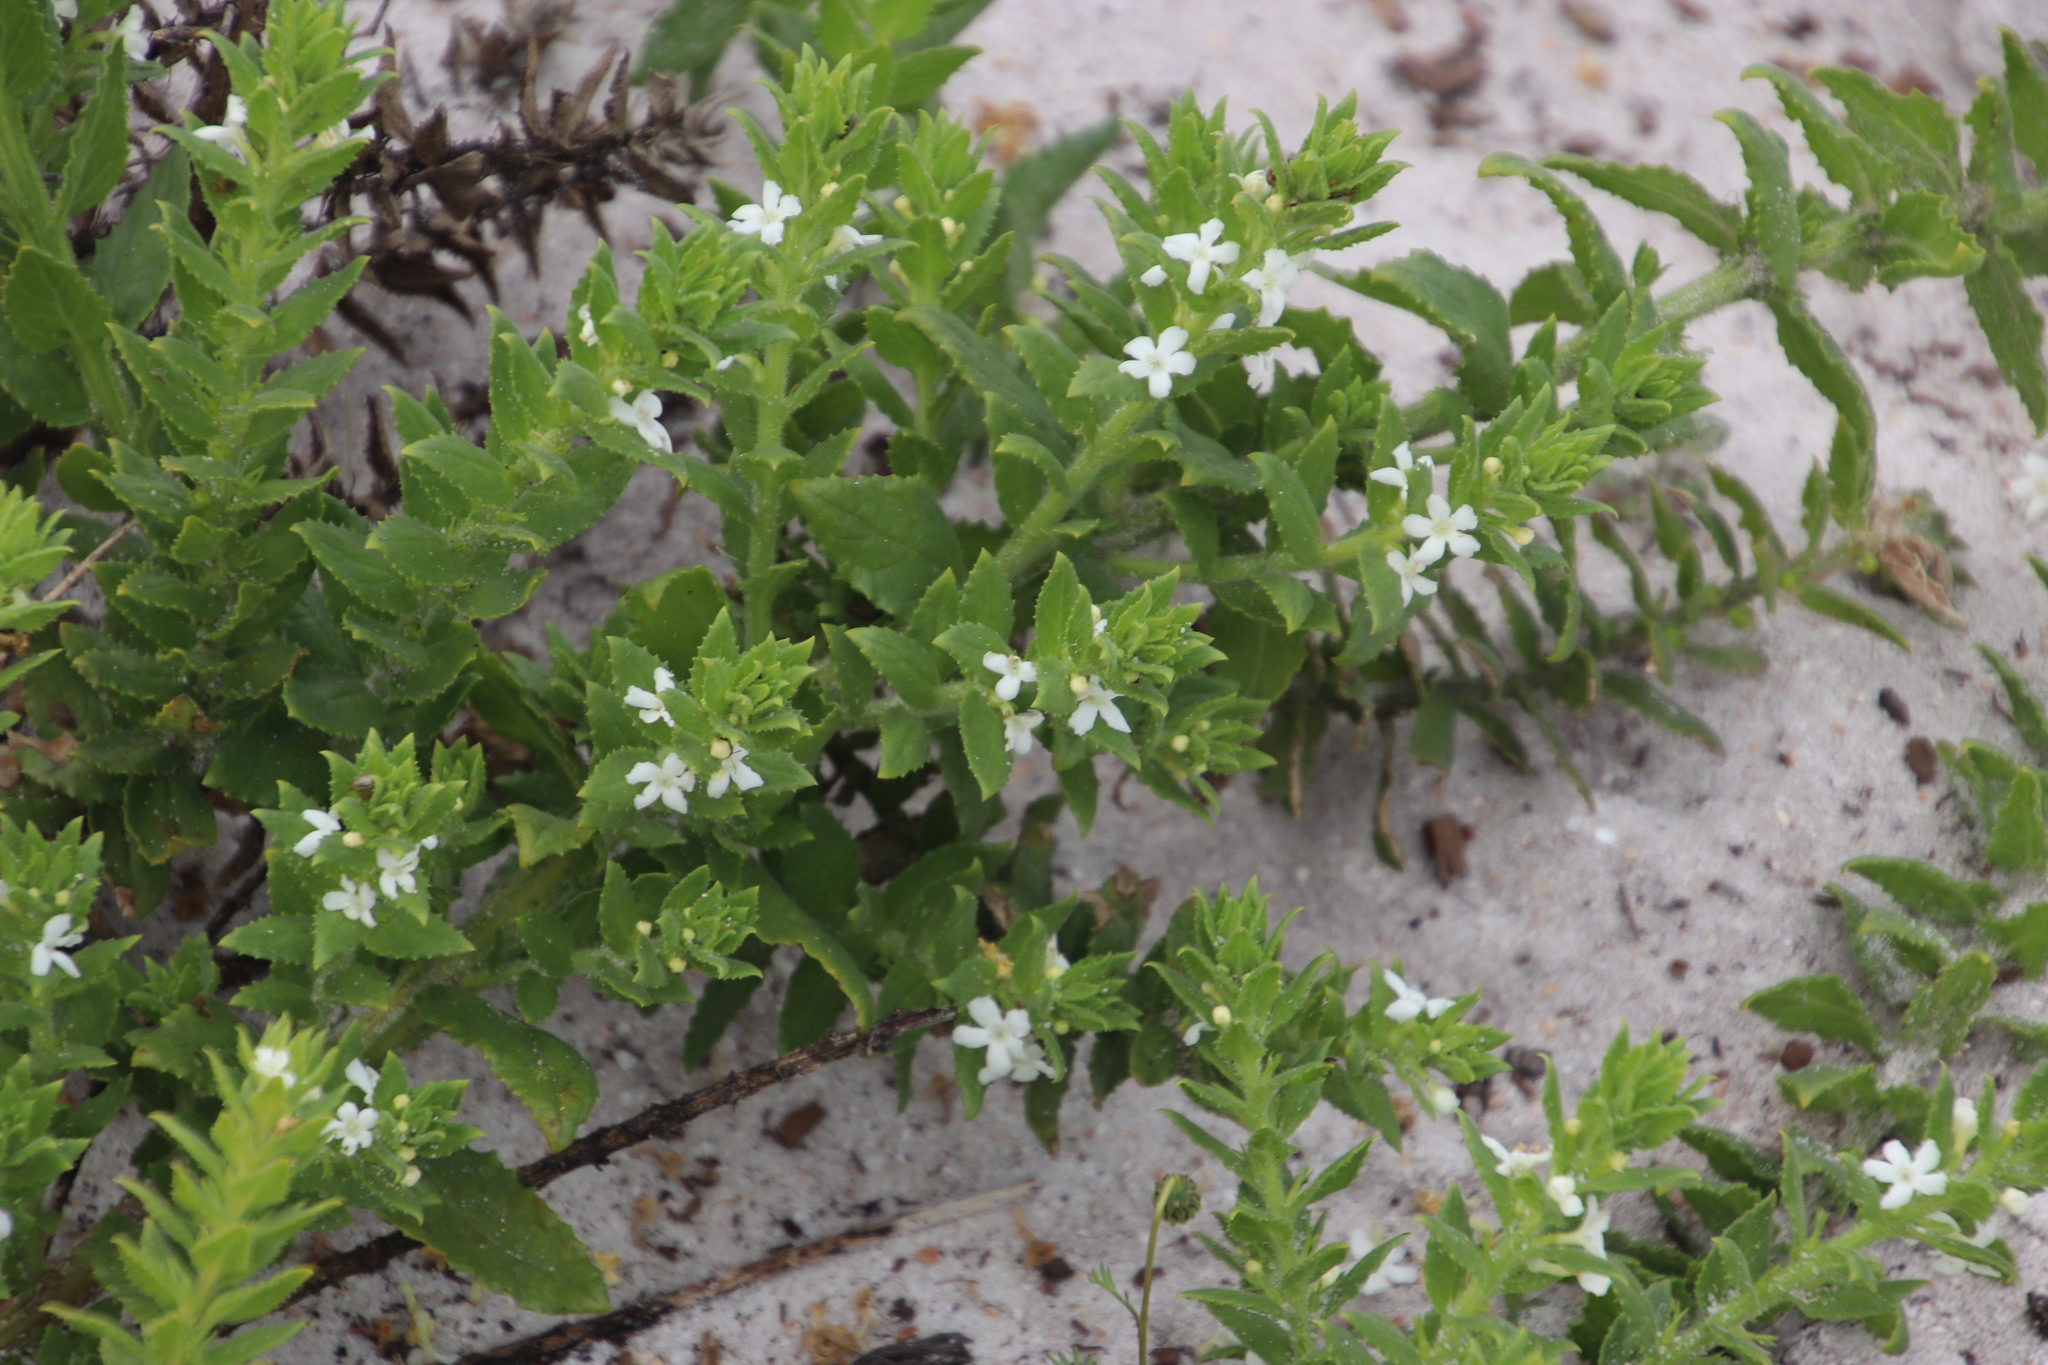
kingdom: Plantae
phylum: Tracheophyta
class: Magnoliopsida
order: Lamiales
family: Scrophulariaceae
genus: Oftia
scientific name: Oftia africana
